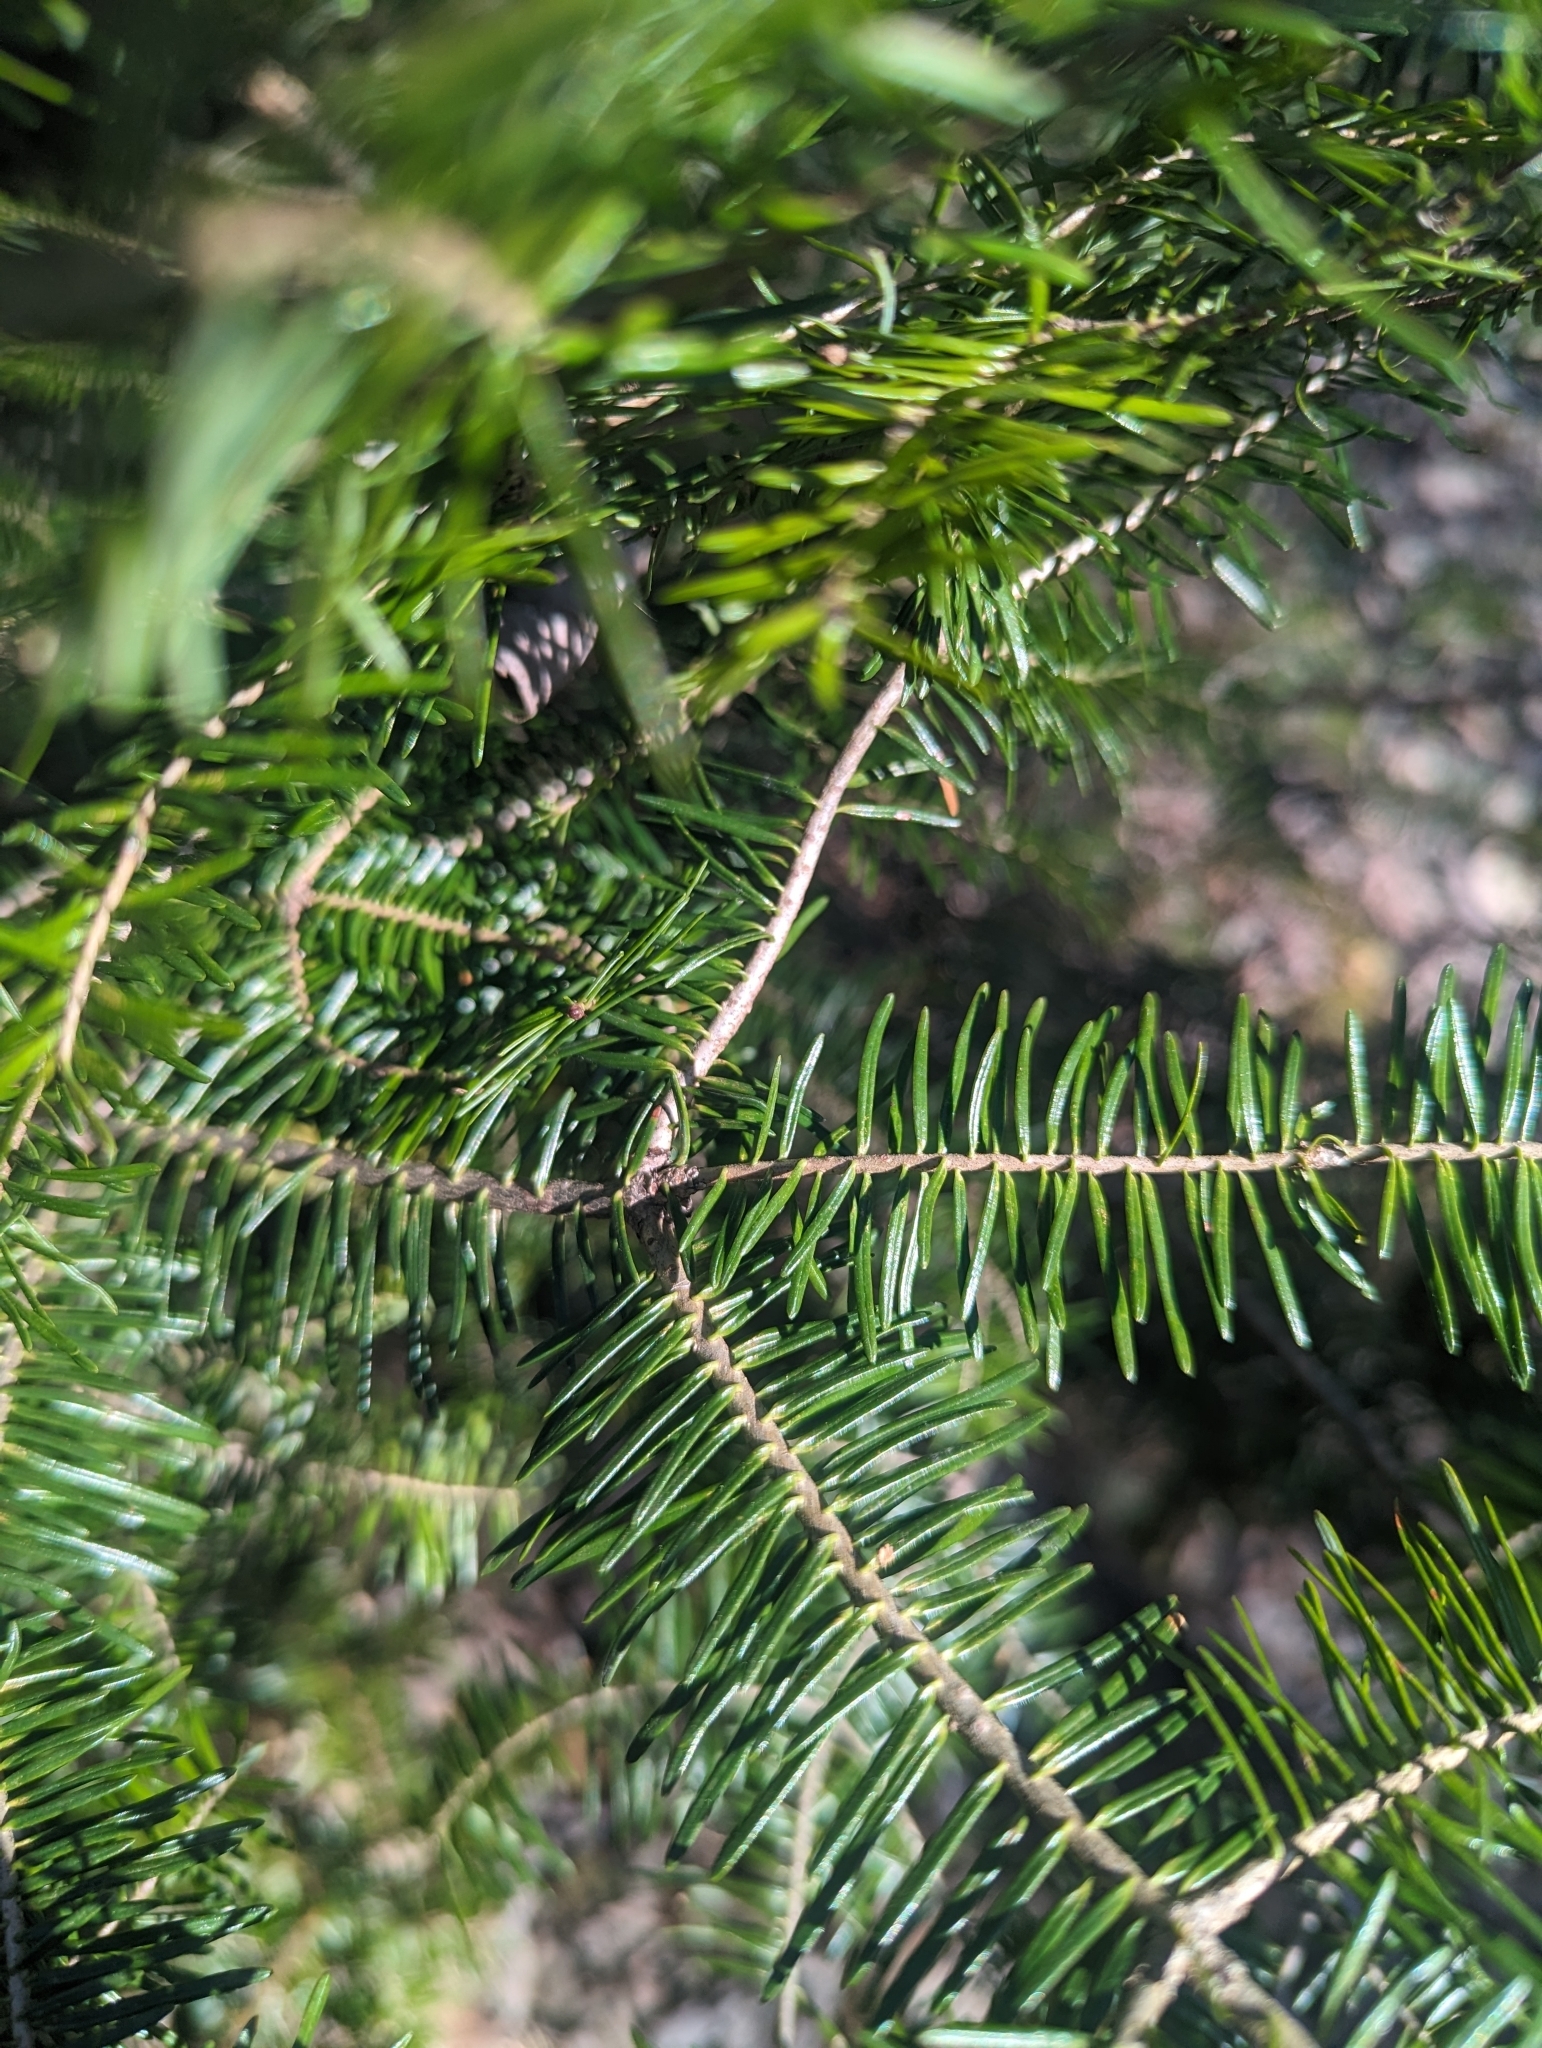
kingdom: Plantae
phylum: Tracheophyta
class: Pinopsida
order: Pinales
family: Pinaceae
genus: Abies
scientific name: Abies balsamea
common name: Balsam fir
